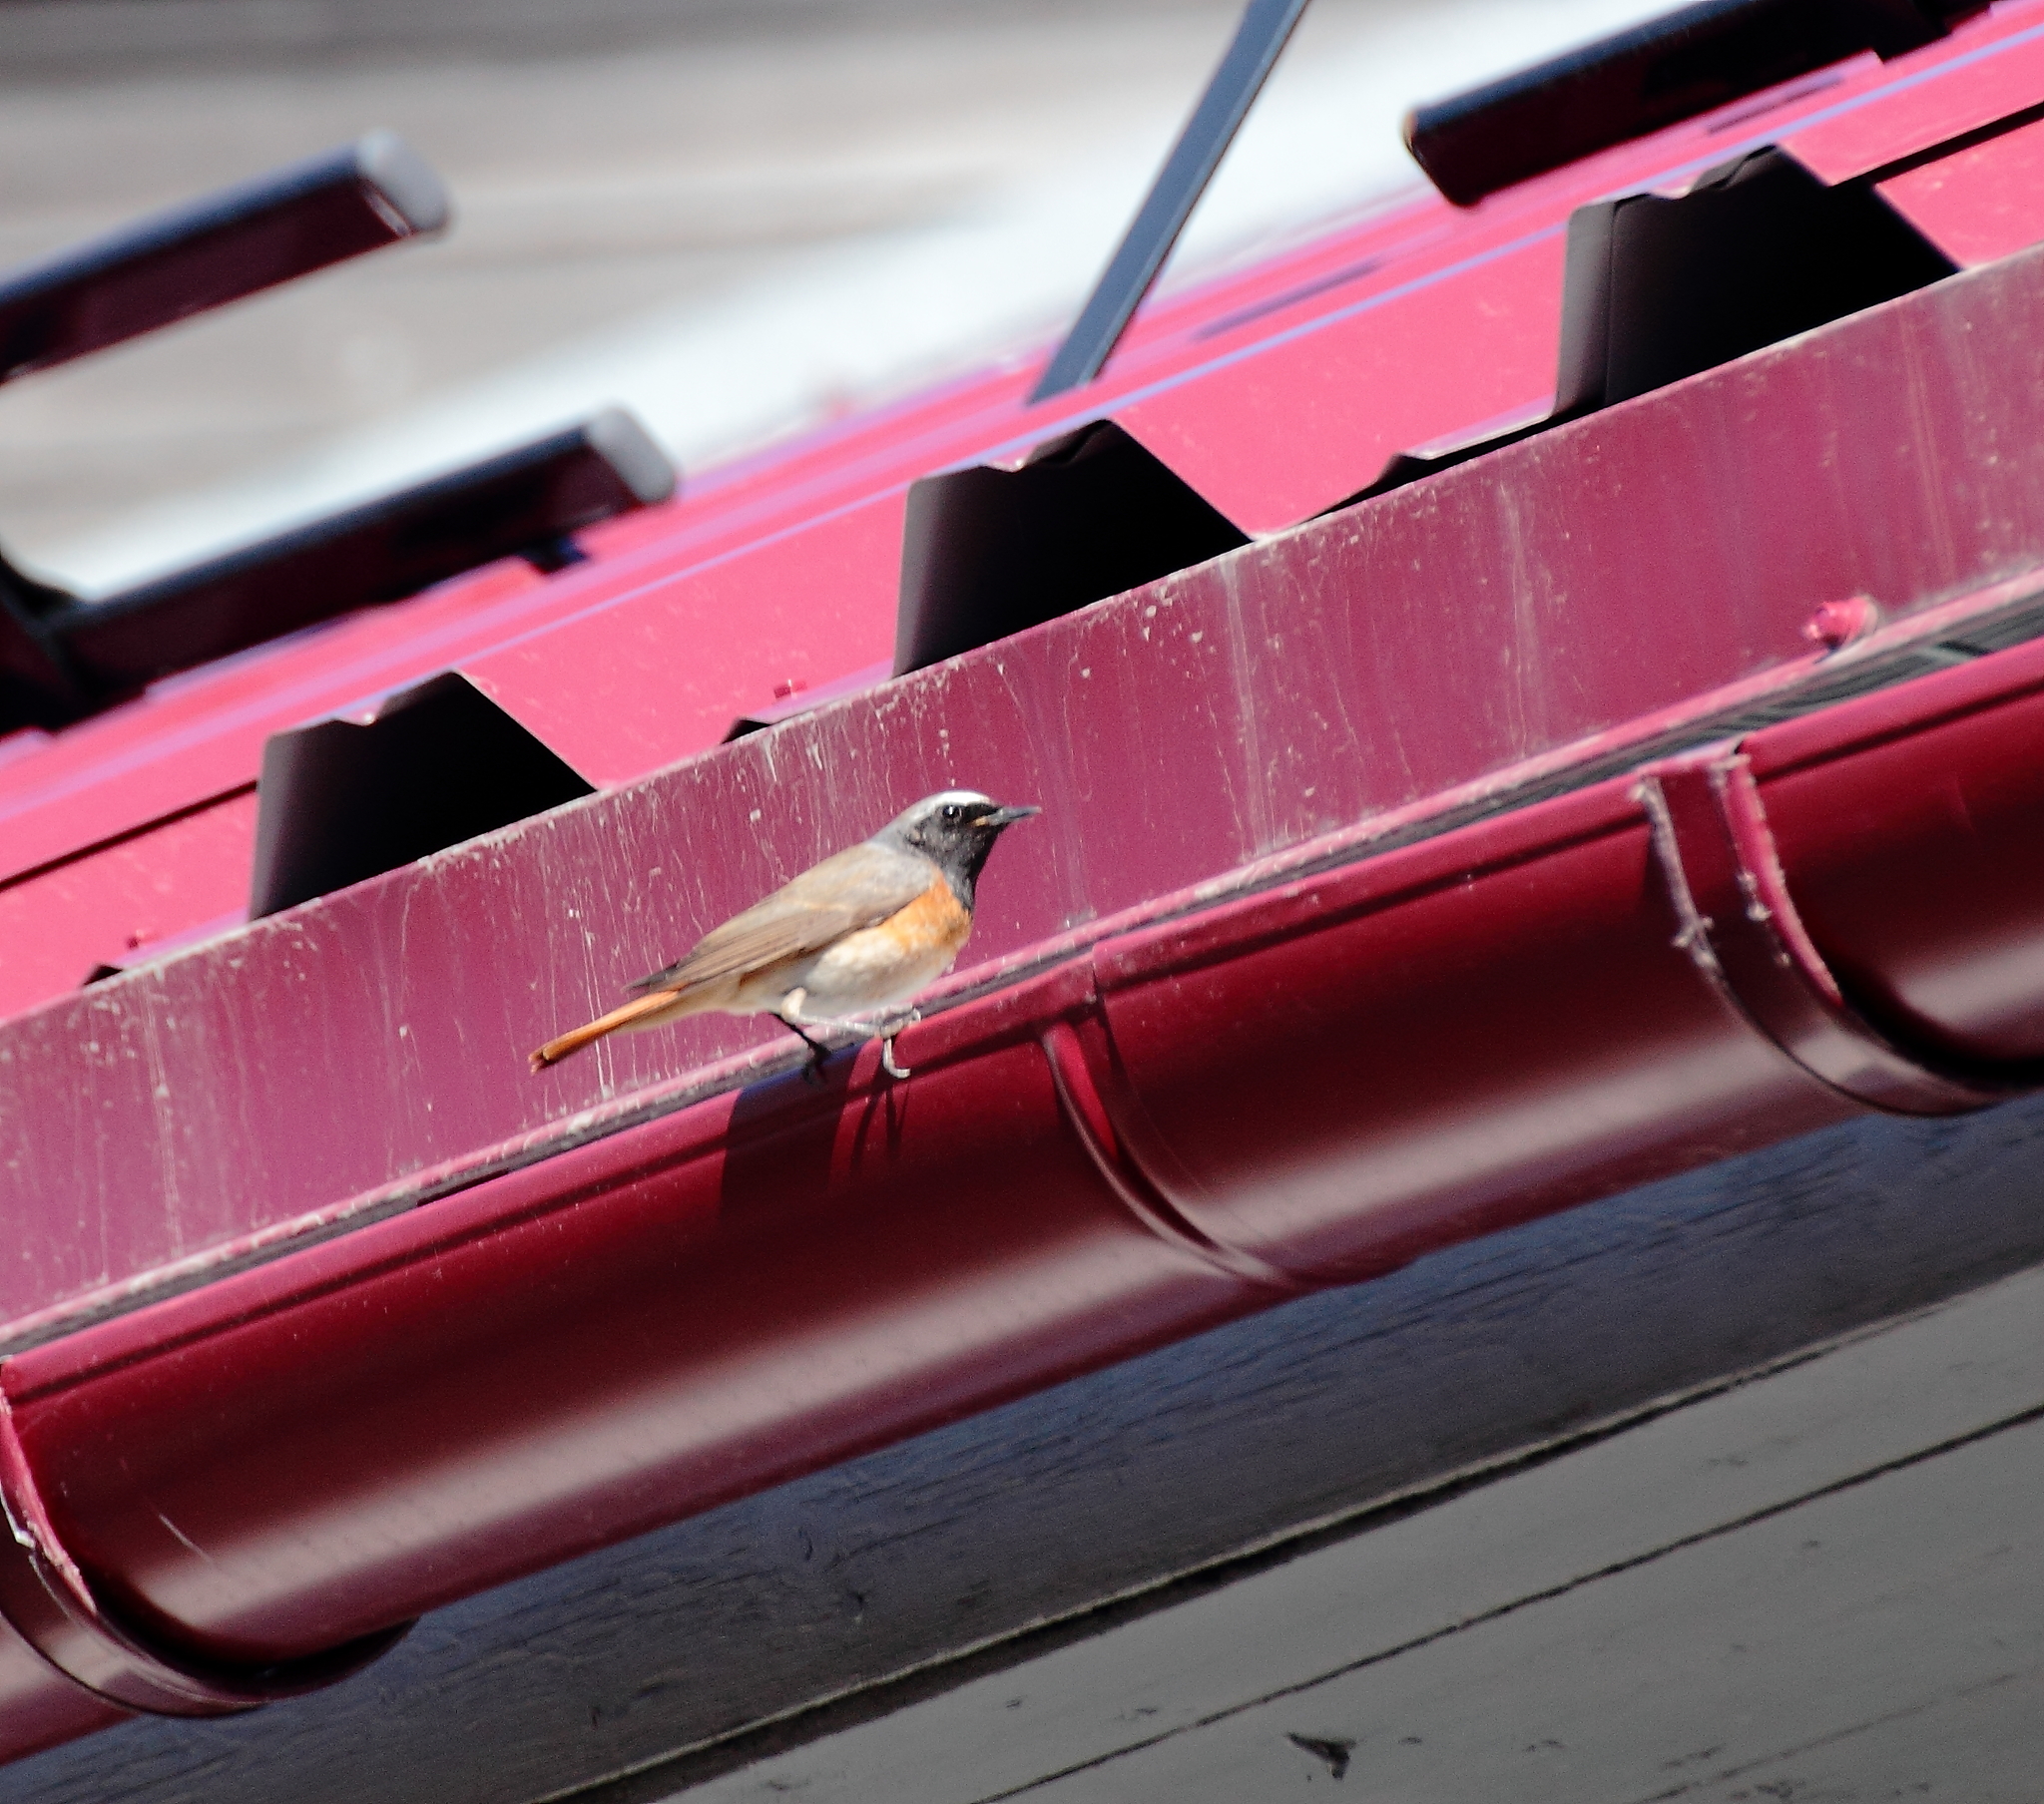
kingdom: Animalia
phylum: Chordata
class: Aves
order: Passeriformes
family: Muscicapidae
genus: Phoenicurus
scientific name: Phoenicurus phoenicurus
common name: Common redstart
